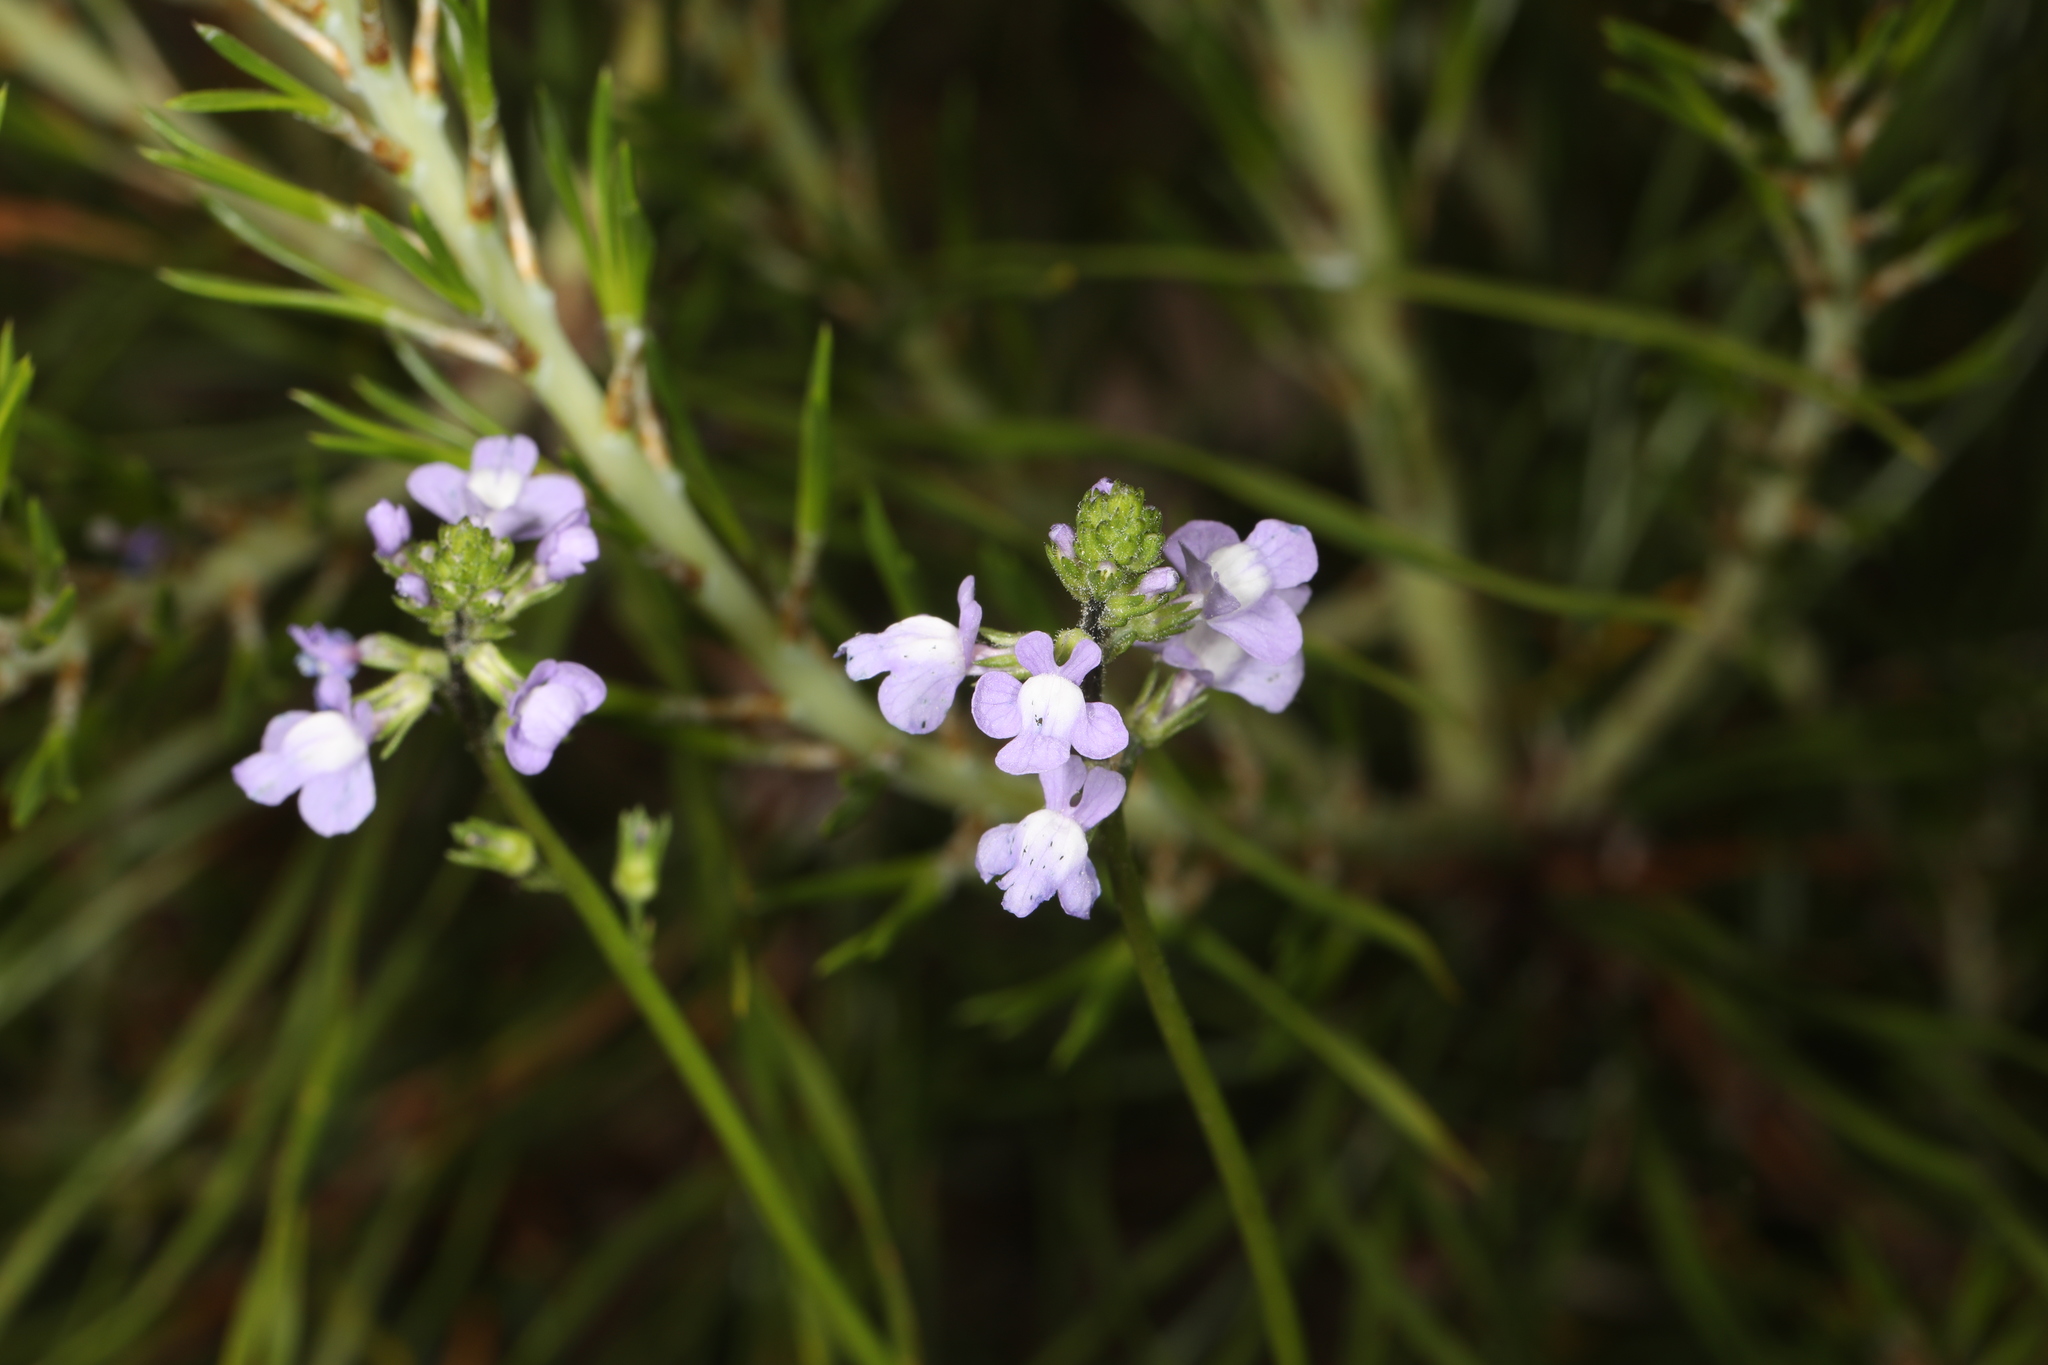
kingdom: Plantae
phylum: Tracheophyta
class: Magnoliopsida
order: Lamiales
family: Plantaginaceae
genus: Nuttallanthus
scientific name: Nuttallanthus canadensis
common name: Blue toadflax
